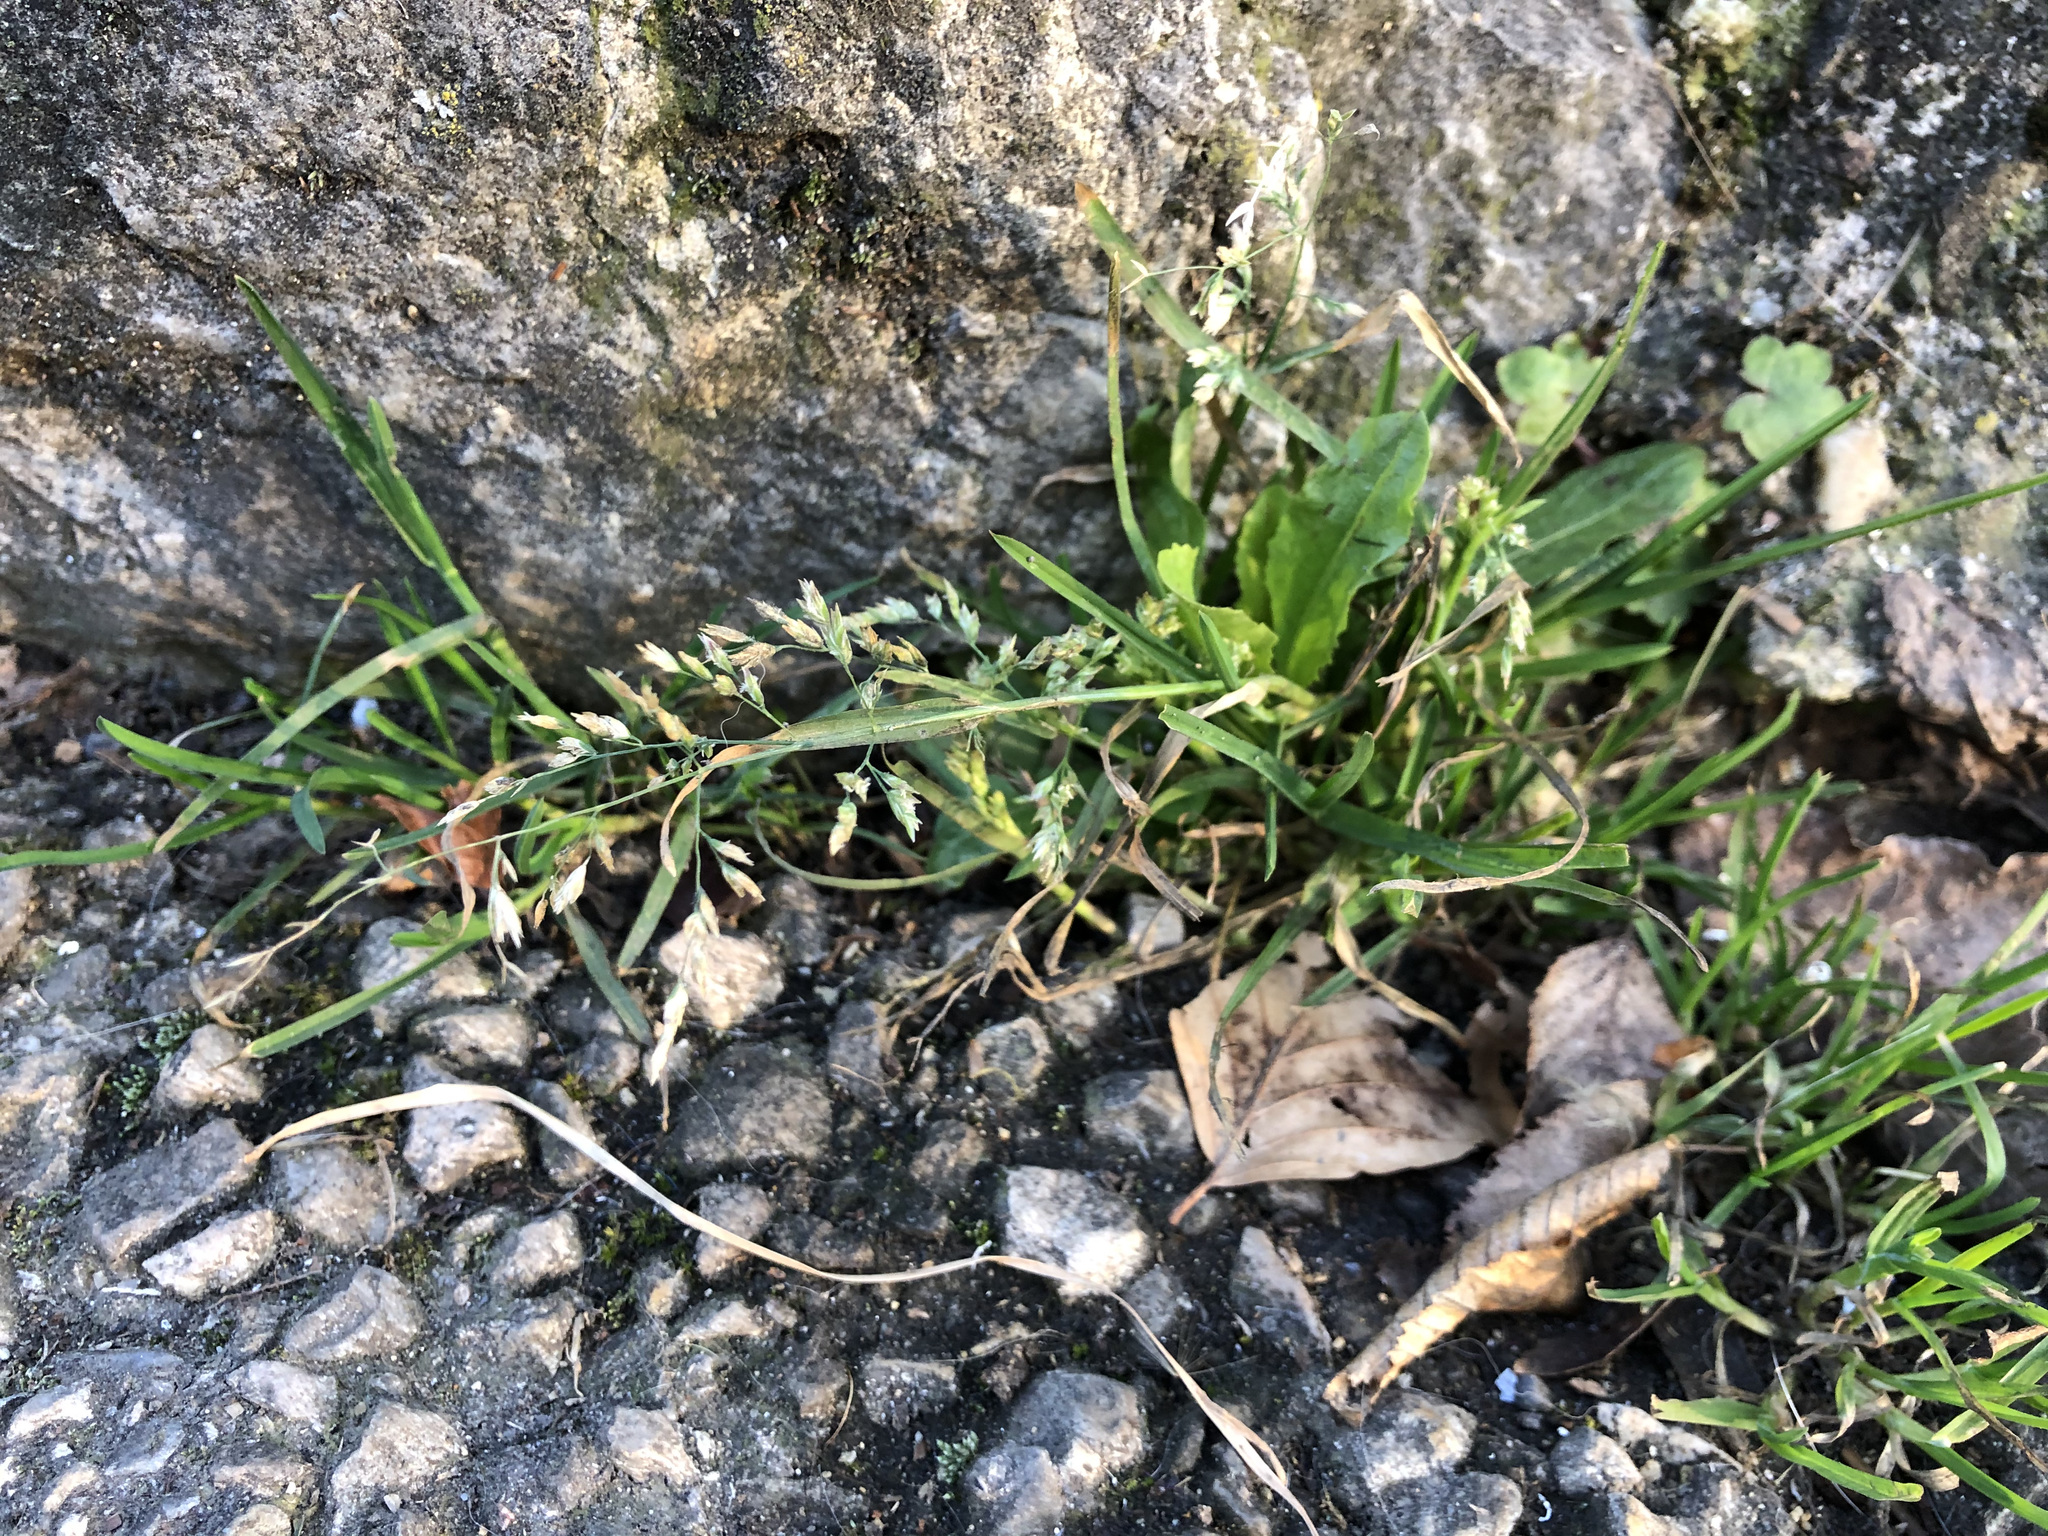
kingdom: Plantae
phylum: Tracheophyta
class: Liliopsida
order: Poales
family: Poaceae
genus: Poa
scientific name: Poa annua
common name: Annual bluegrass
